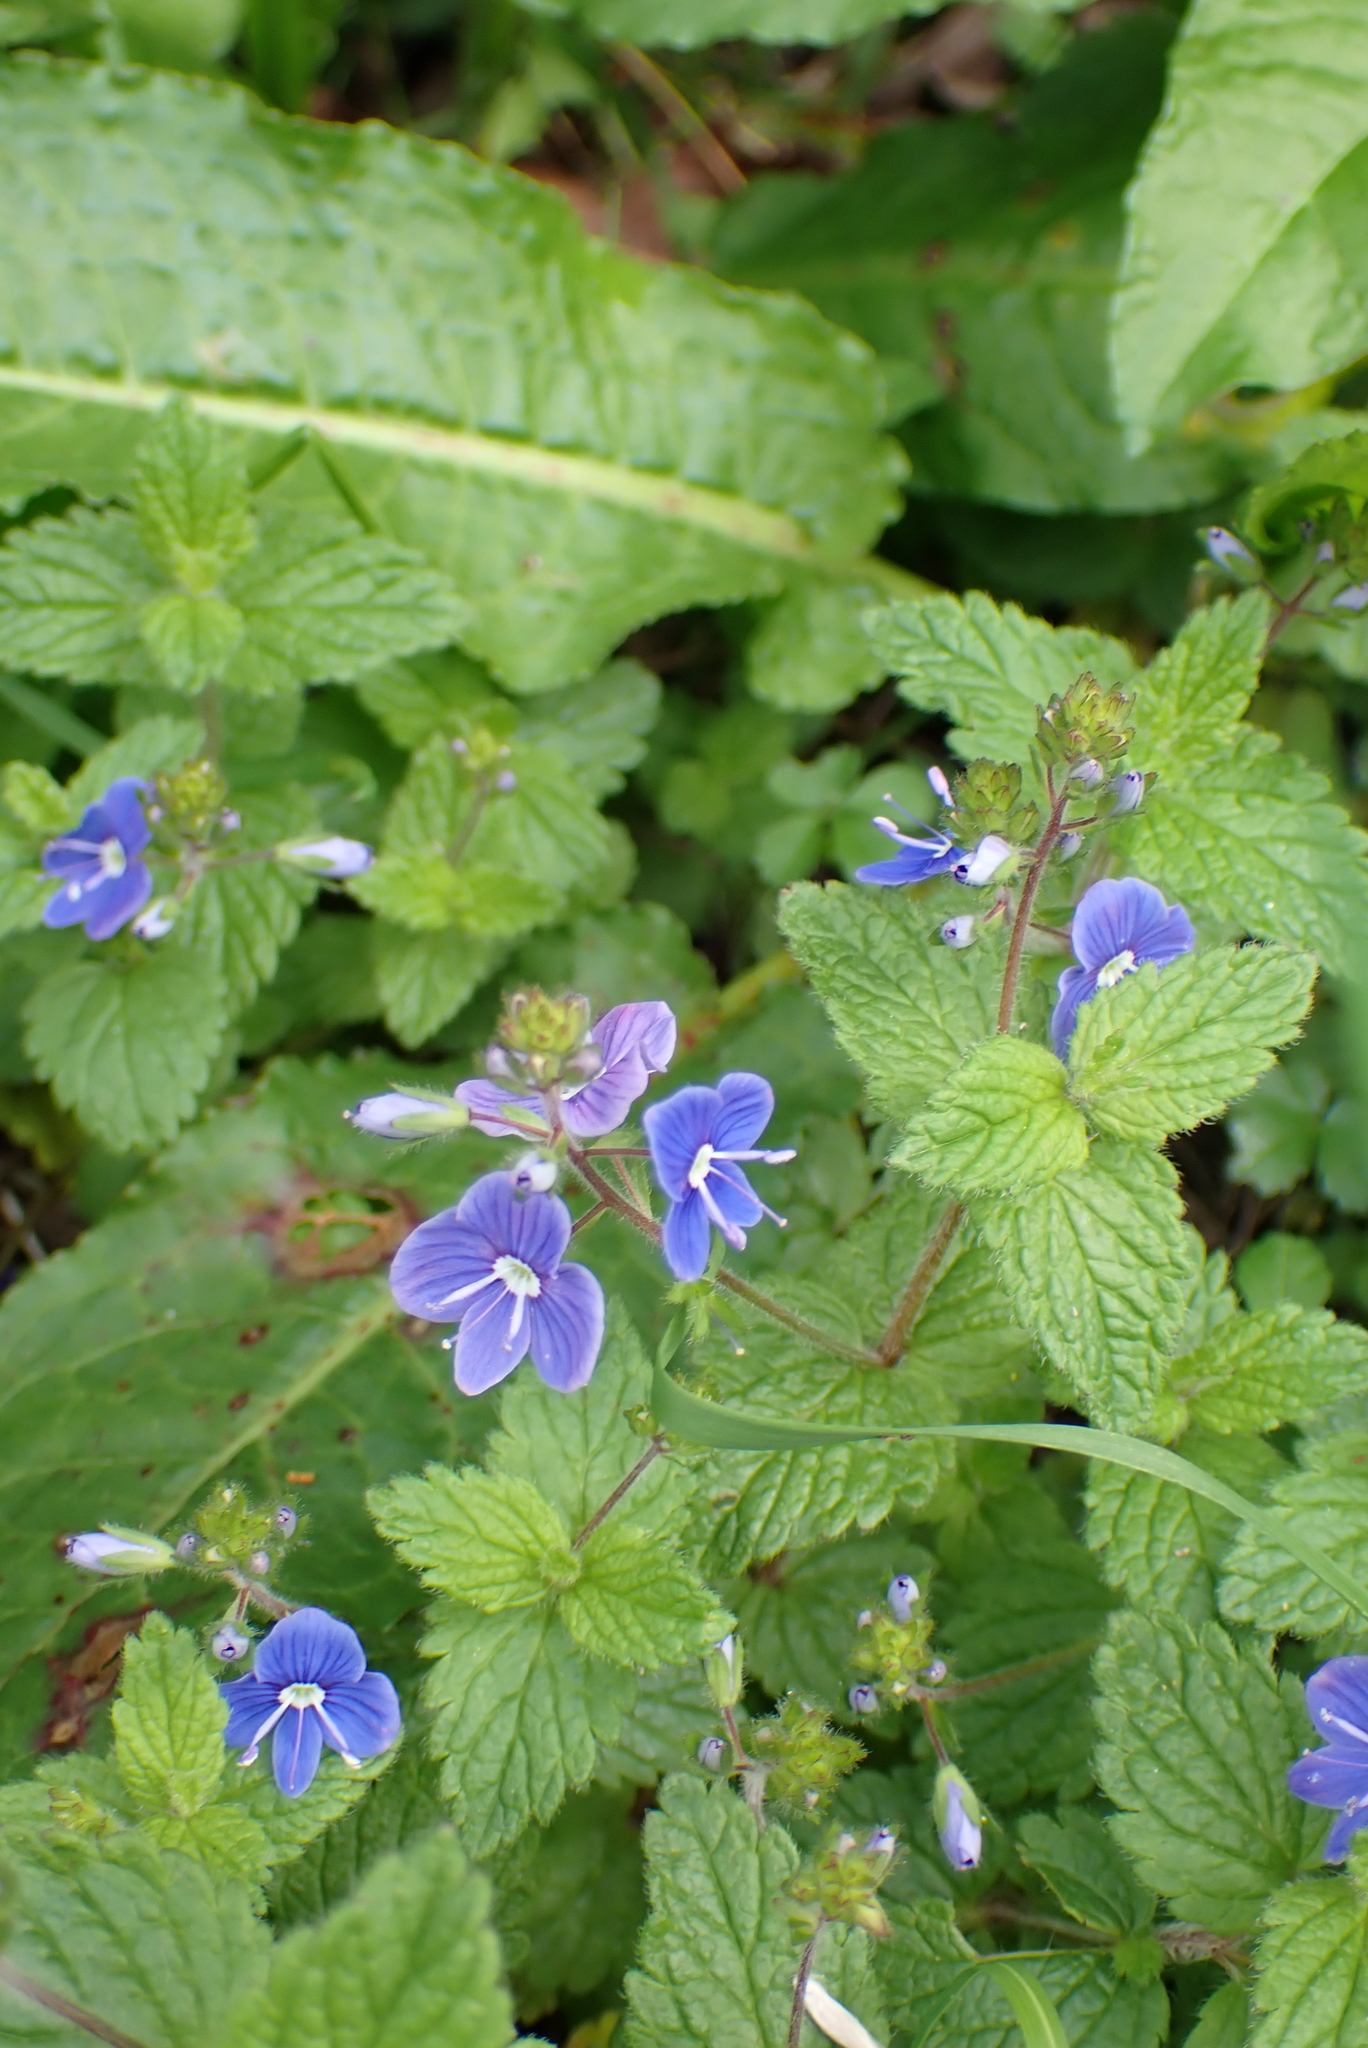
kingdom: Plantae
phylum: Tracheophyta
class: Magnoliopsida
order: Lamiales
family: Plantaginaceae
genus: Veronica
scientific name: Veronica chamaedrys
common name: Germander speedwell
